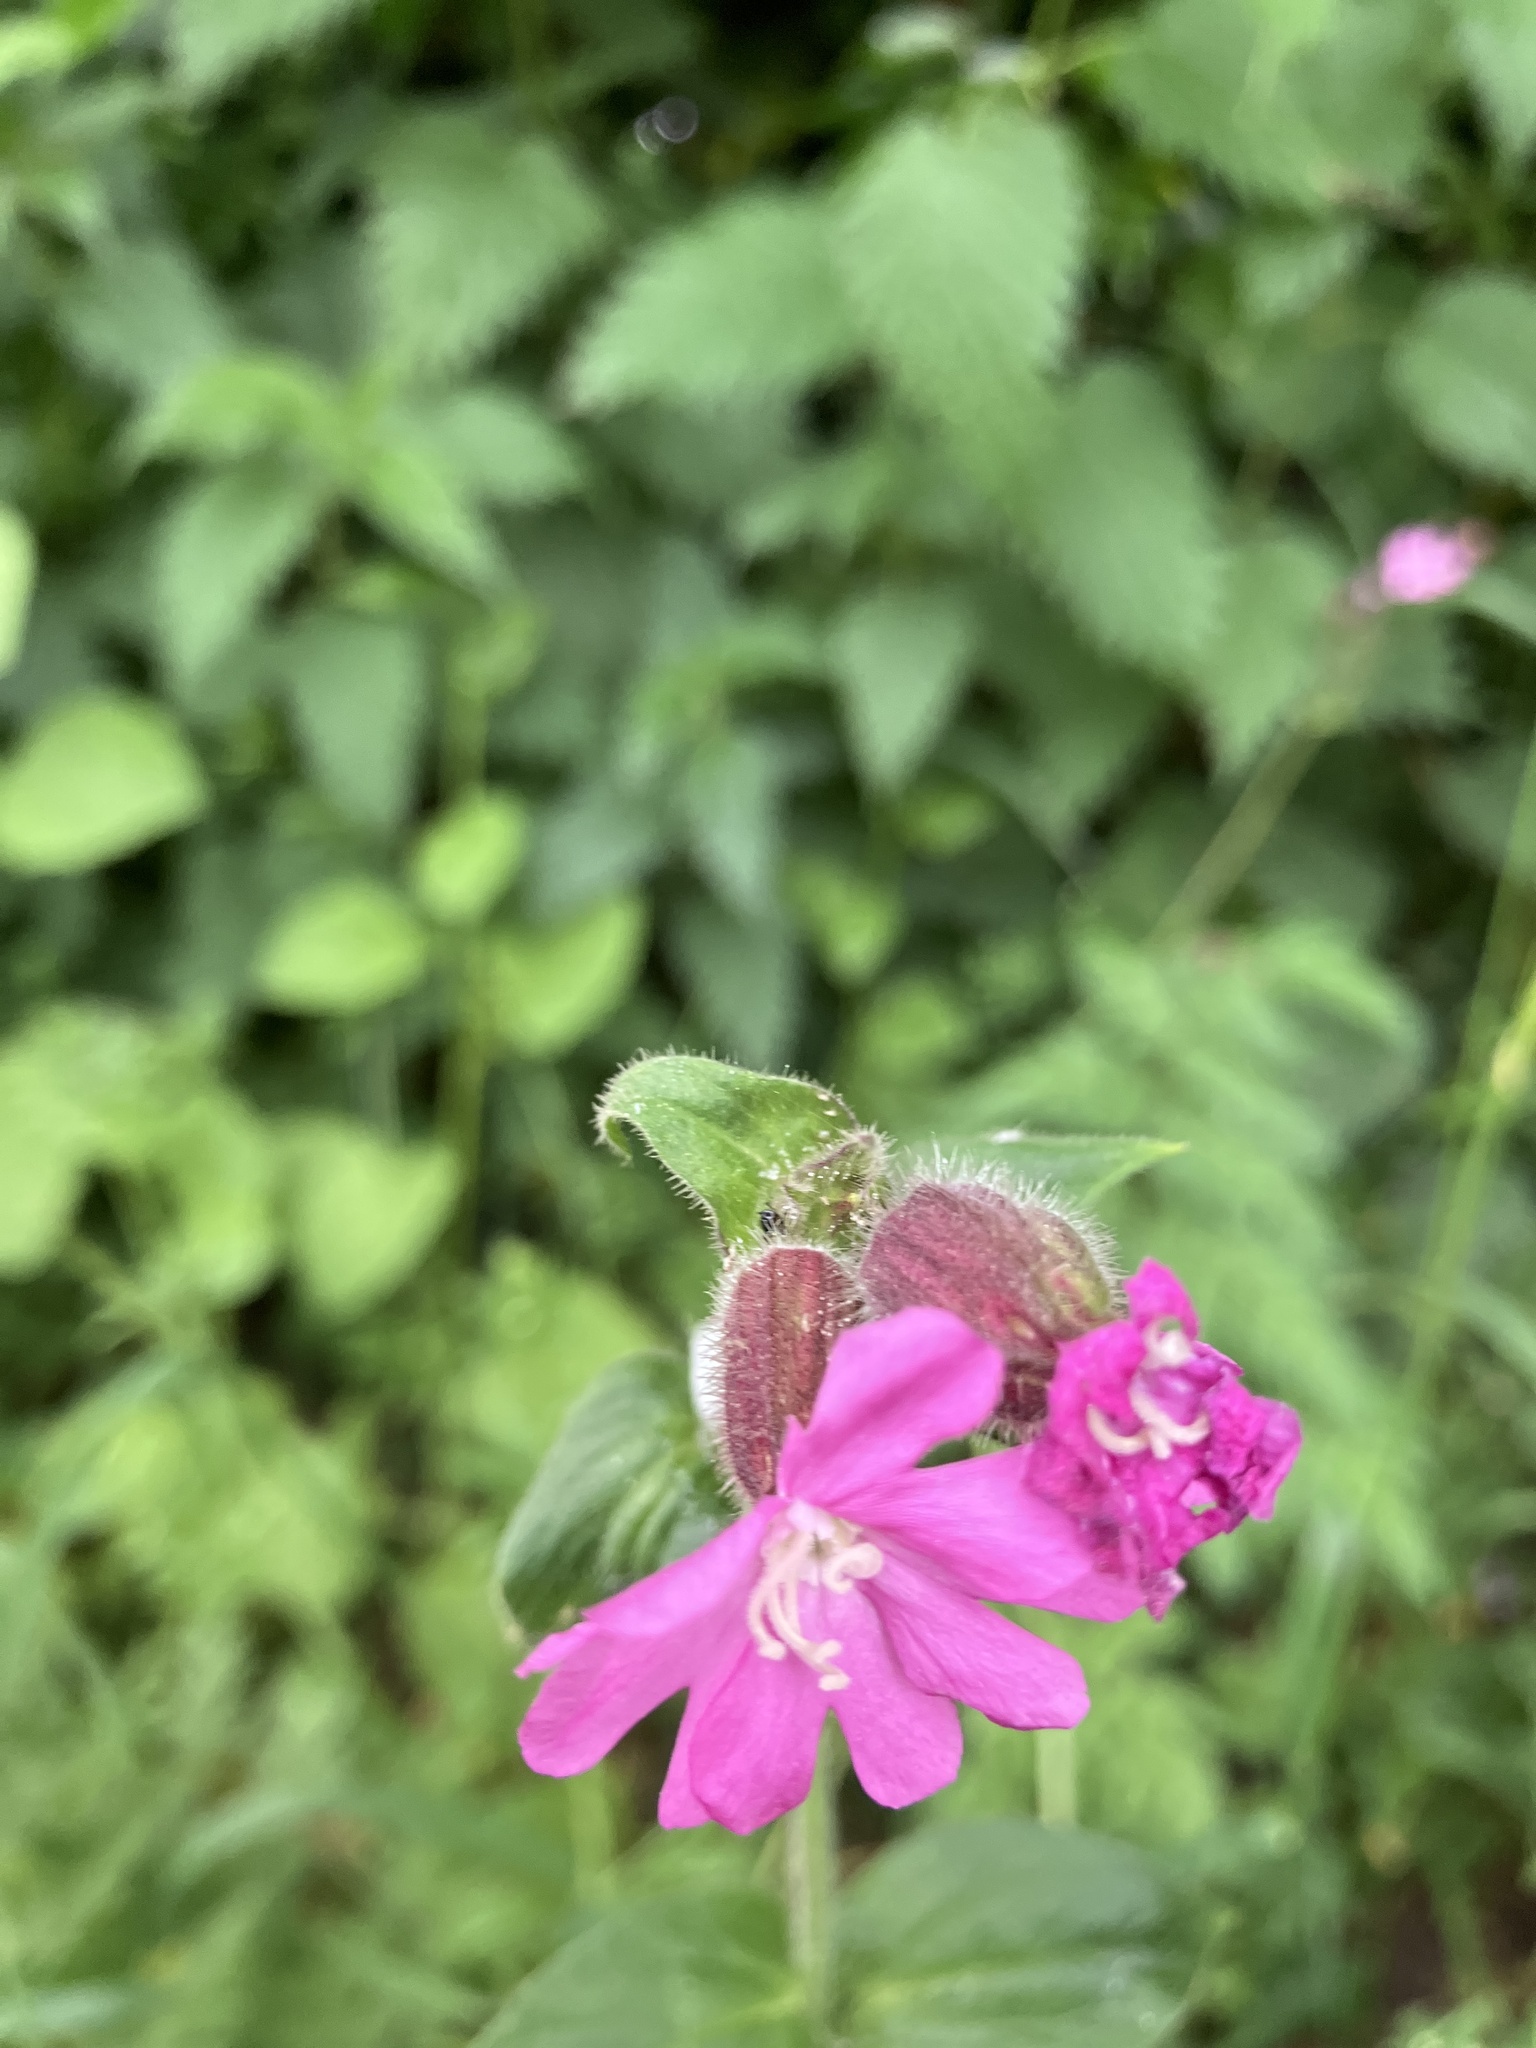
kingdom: Plantae
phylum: Tracheophyta
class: Magnoliopsida
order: Caryophyllales
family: Caryophyllaceae
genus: Silene
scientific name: Silene dioica
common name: Red campion
